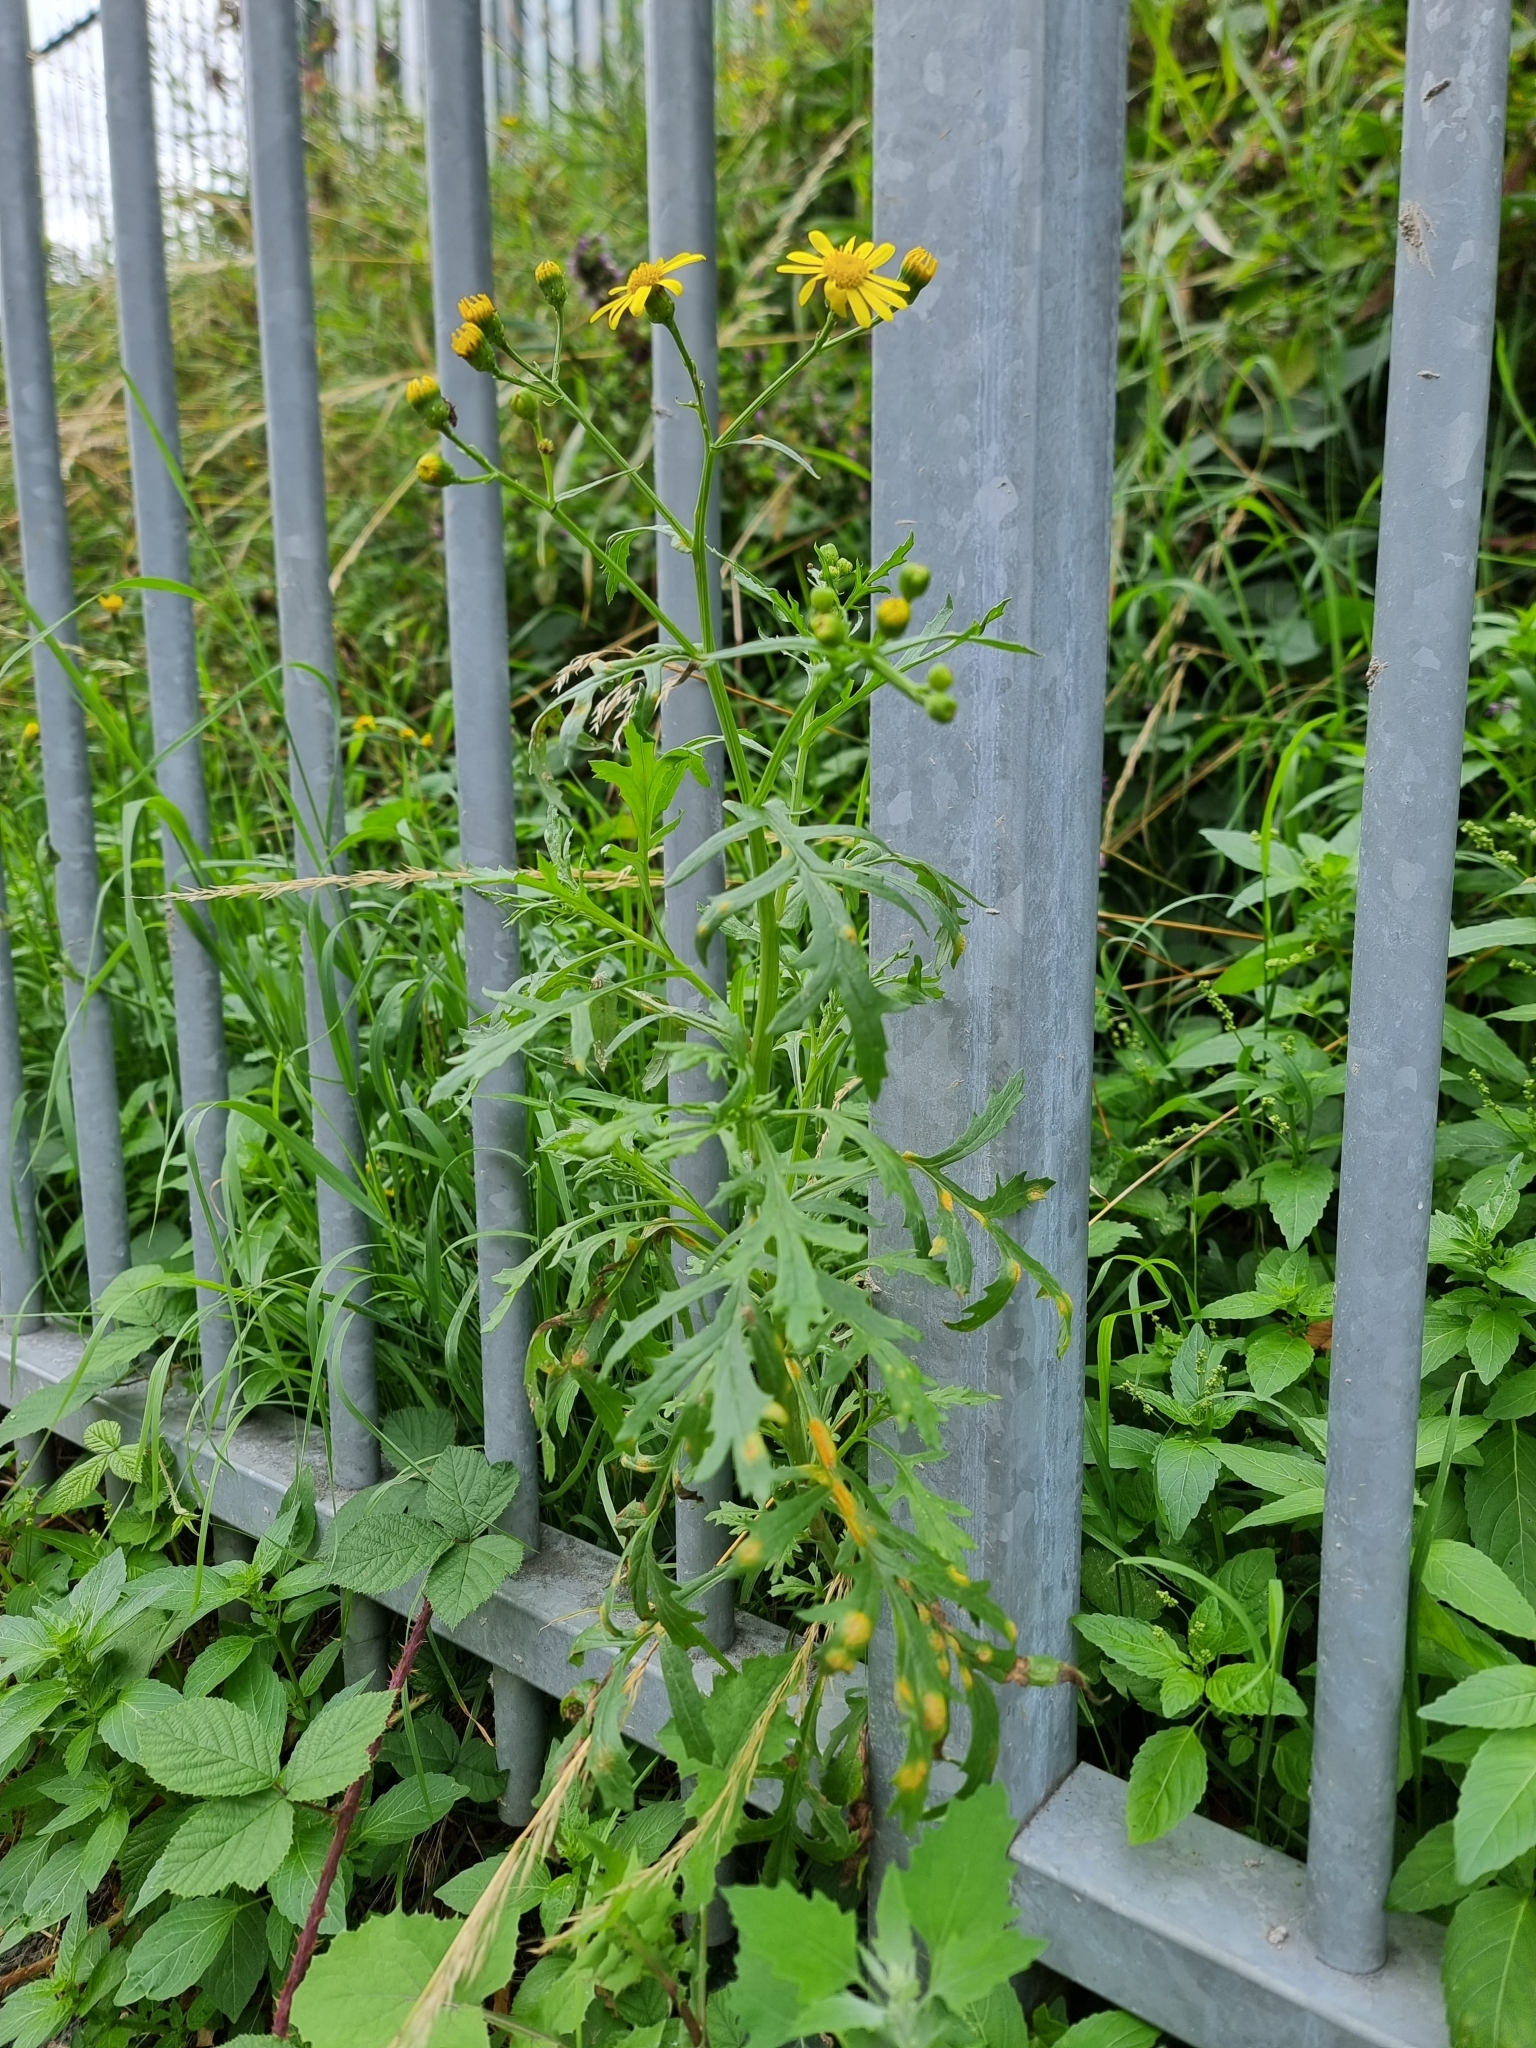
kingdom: Plantae
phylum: Tracheophyta
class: Magnoliopsida
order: Asterales
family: Asteraceae
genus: Senecio
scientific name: Senecio squalidus
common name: Oxford ragwort
